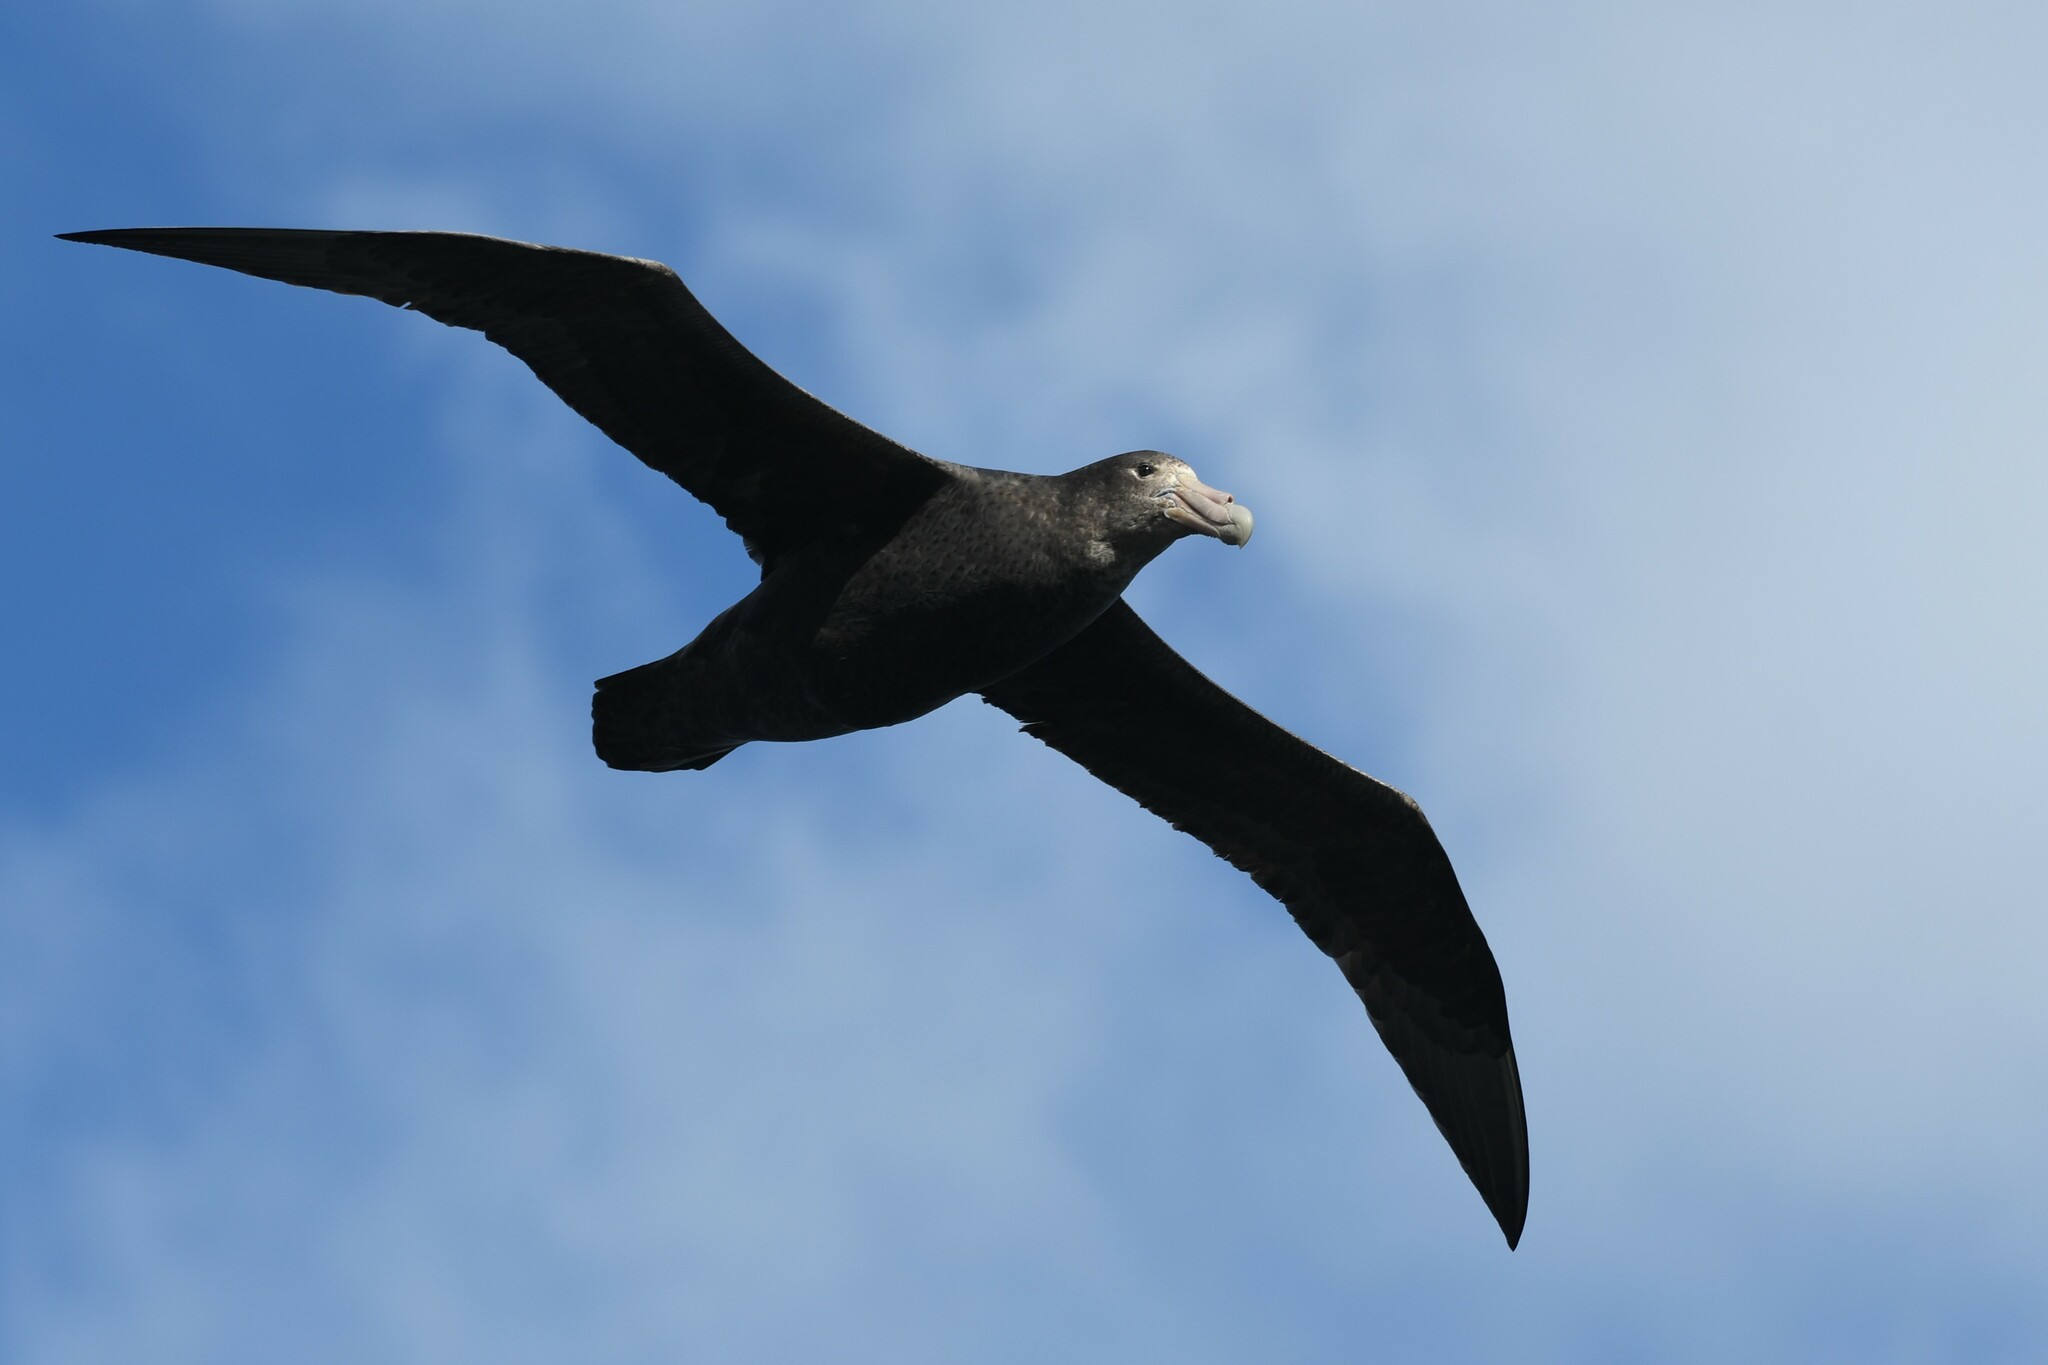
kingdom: Animalia
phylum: Chordata
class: Aves
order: Procellariiformes
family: Procellariidae
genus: Macronectes
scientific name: Macronectes giganteus
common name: Southern giant petrel
